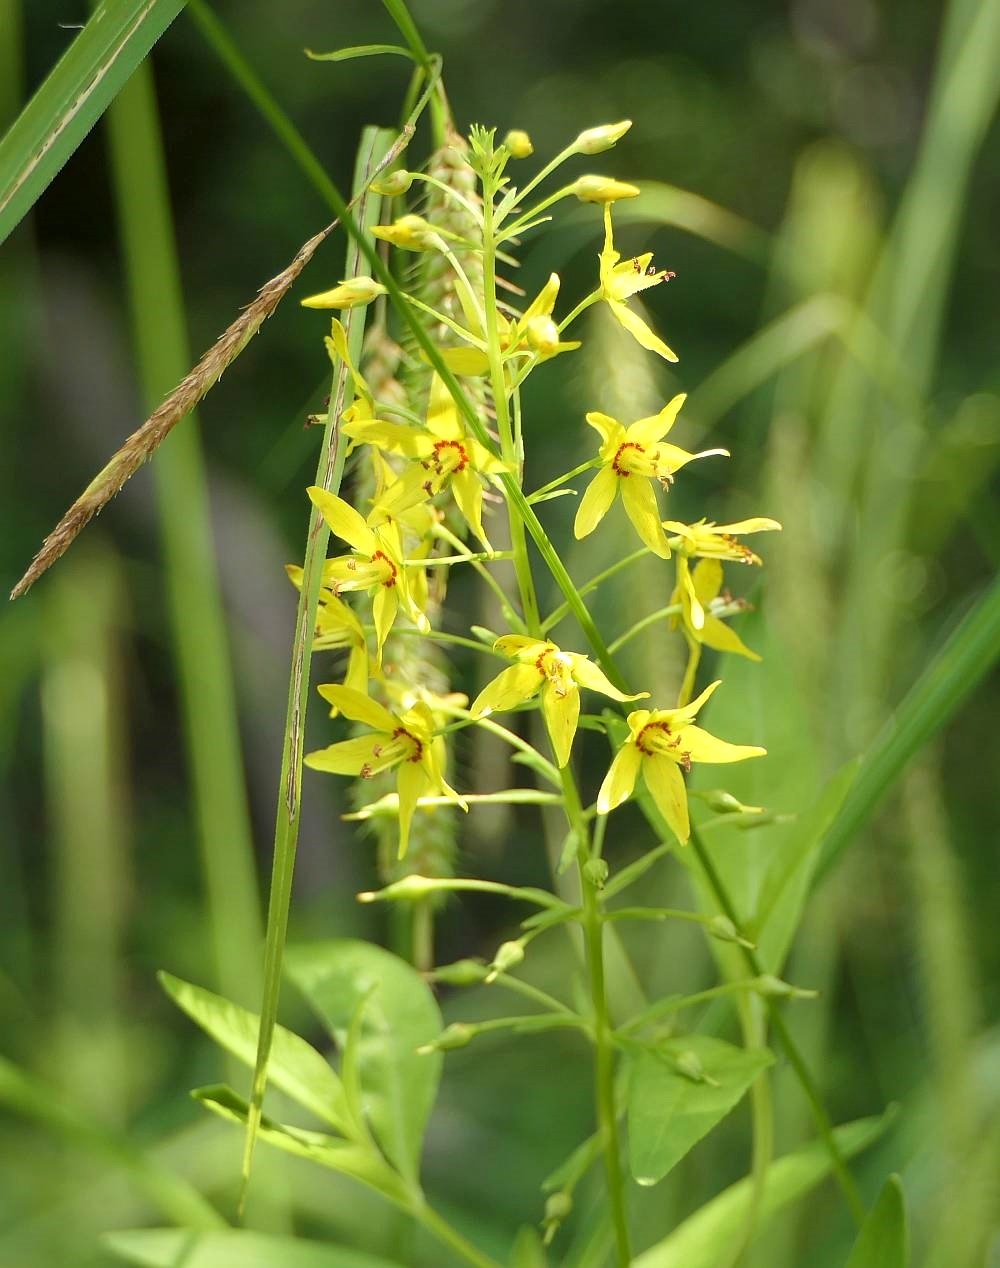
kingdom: Plantae
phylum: Tracheophyta
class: Magnoliopsida
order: Ericales
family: Primulaceae
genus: Lysimachia
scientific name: Lysimachia terrestris
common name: Lake loosestrife
